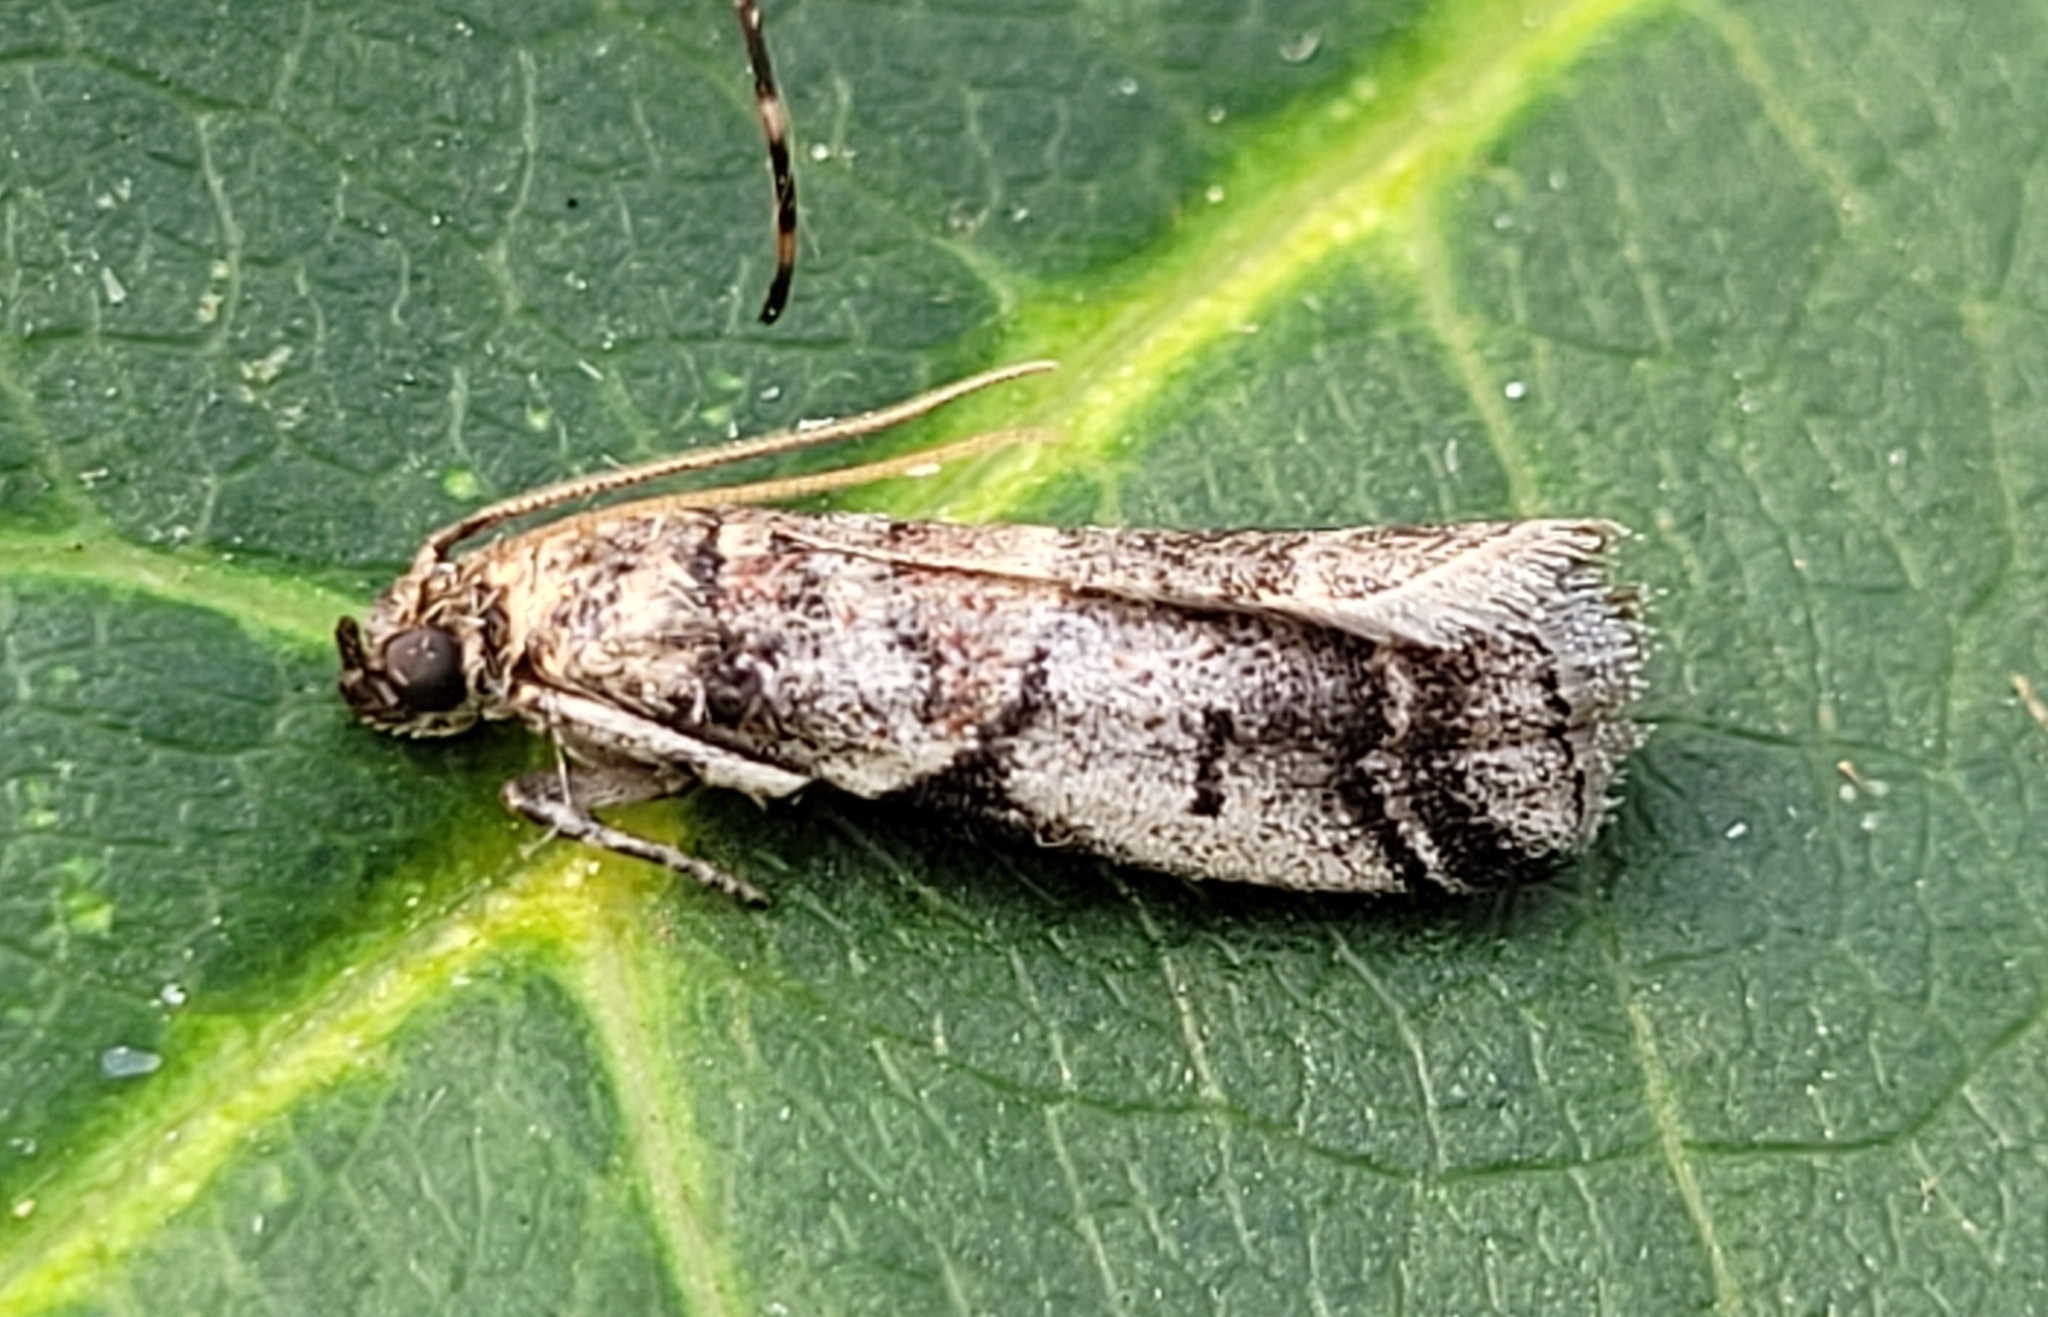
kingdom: Animalia
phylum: Arthropoda
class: Insecta
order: Lepidoptera
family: Pyralidae
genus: Acrobasis
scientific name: Acrobasis tricolorella
